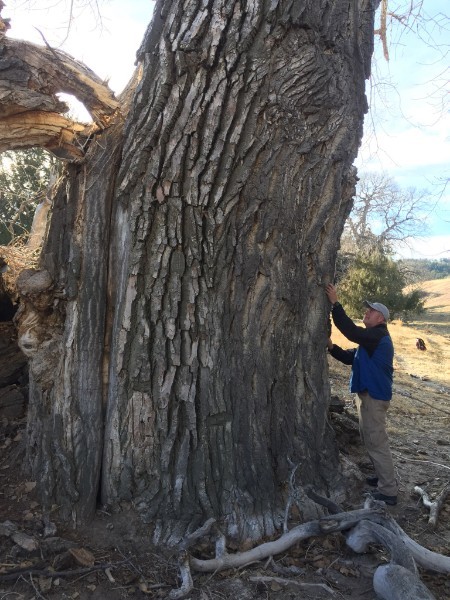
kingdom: Plantae
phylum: Tracheophyta
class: Magnoliopsida
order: Malpighiales
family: Salicaceae
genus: Populus
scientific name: Populus deltoides
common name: Eastern cottonwood
